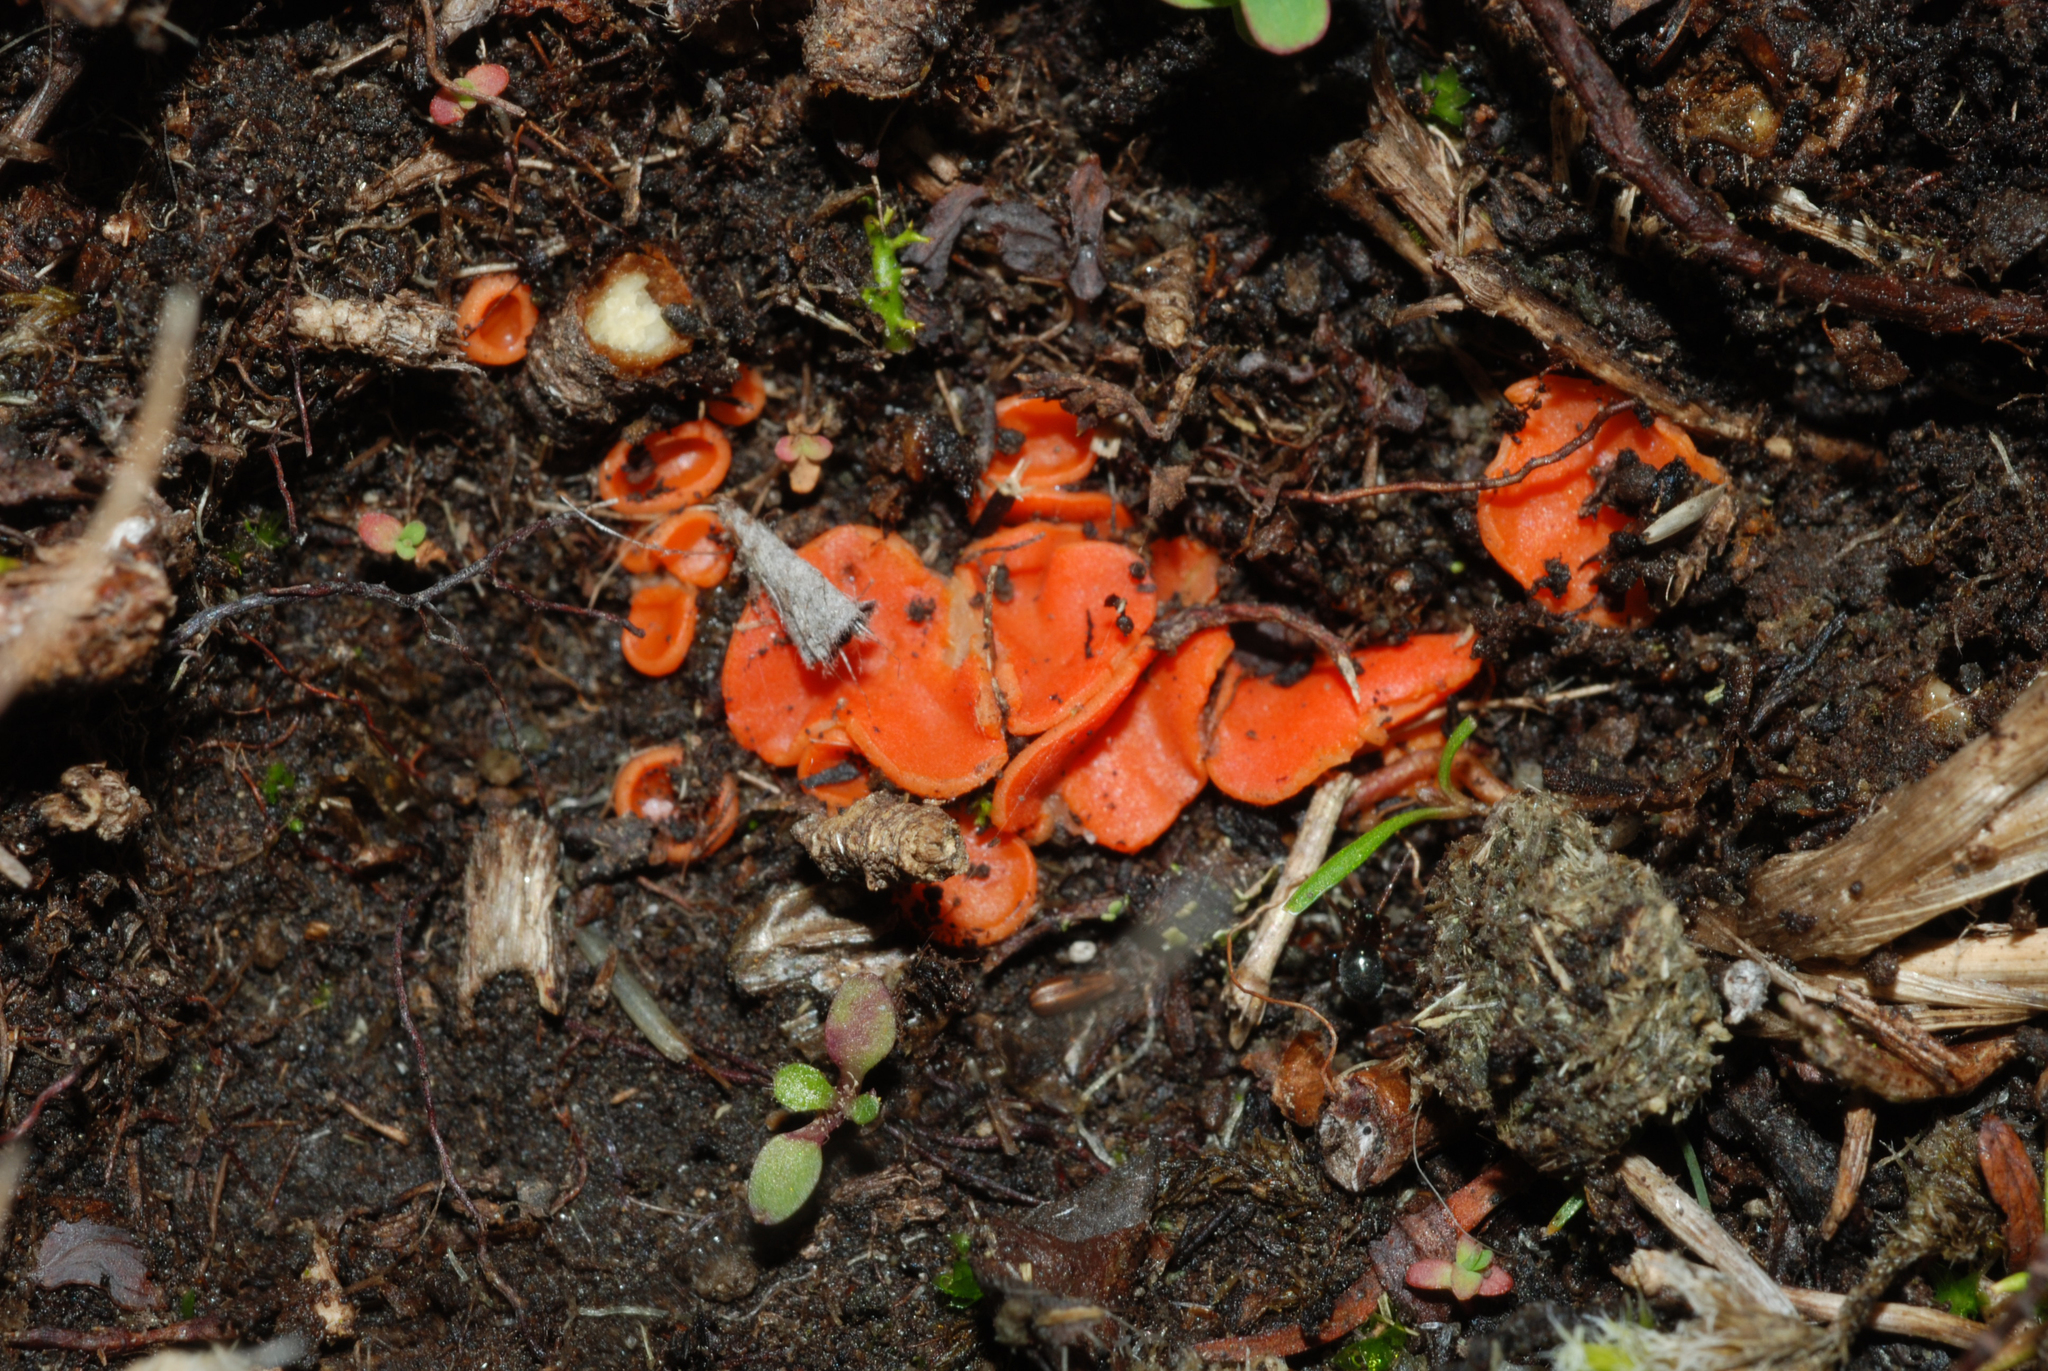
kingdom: Fungi
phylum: Ascomycota
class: Pezizomycetes
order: Pezizales
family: Pulvinulaceae
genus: Pulvinula
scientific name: Pulvinula miltina
